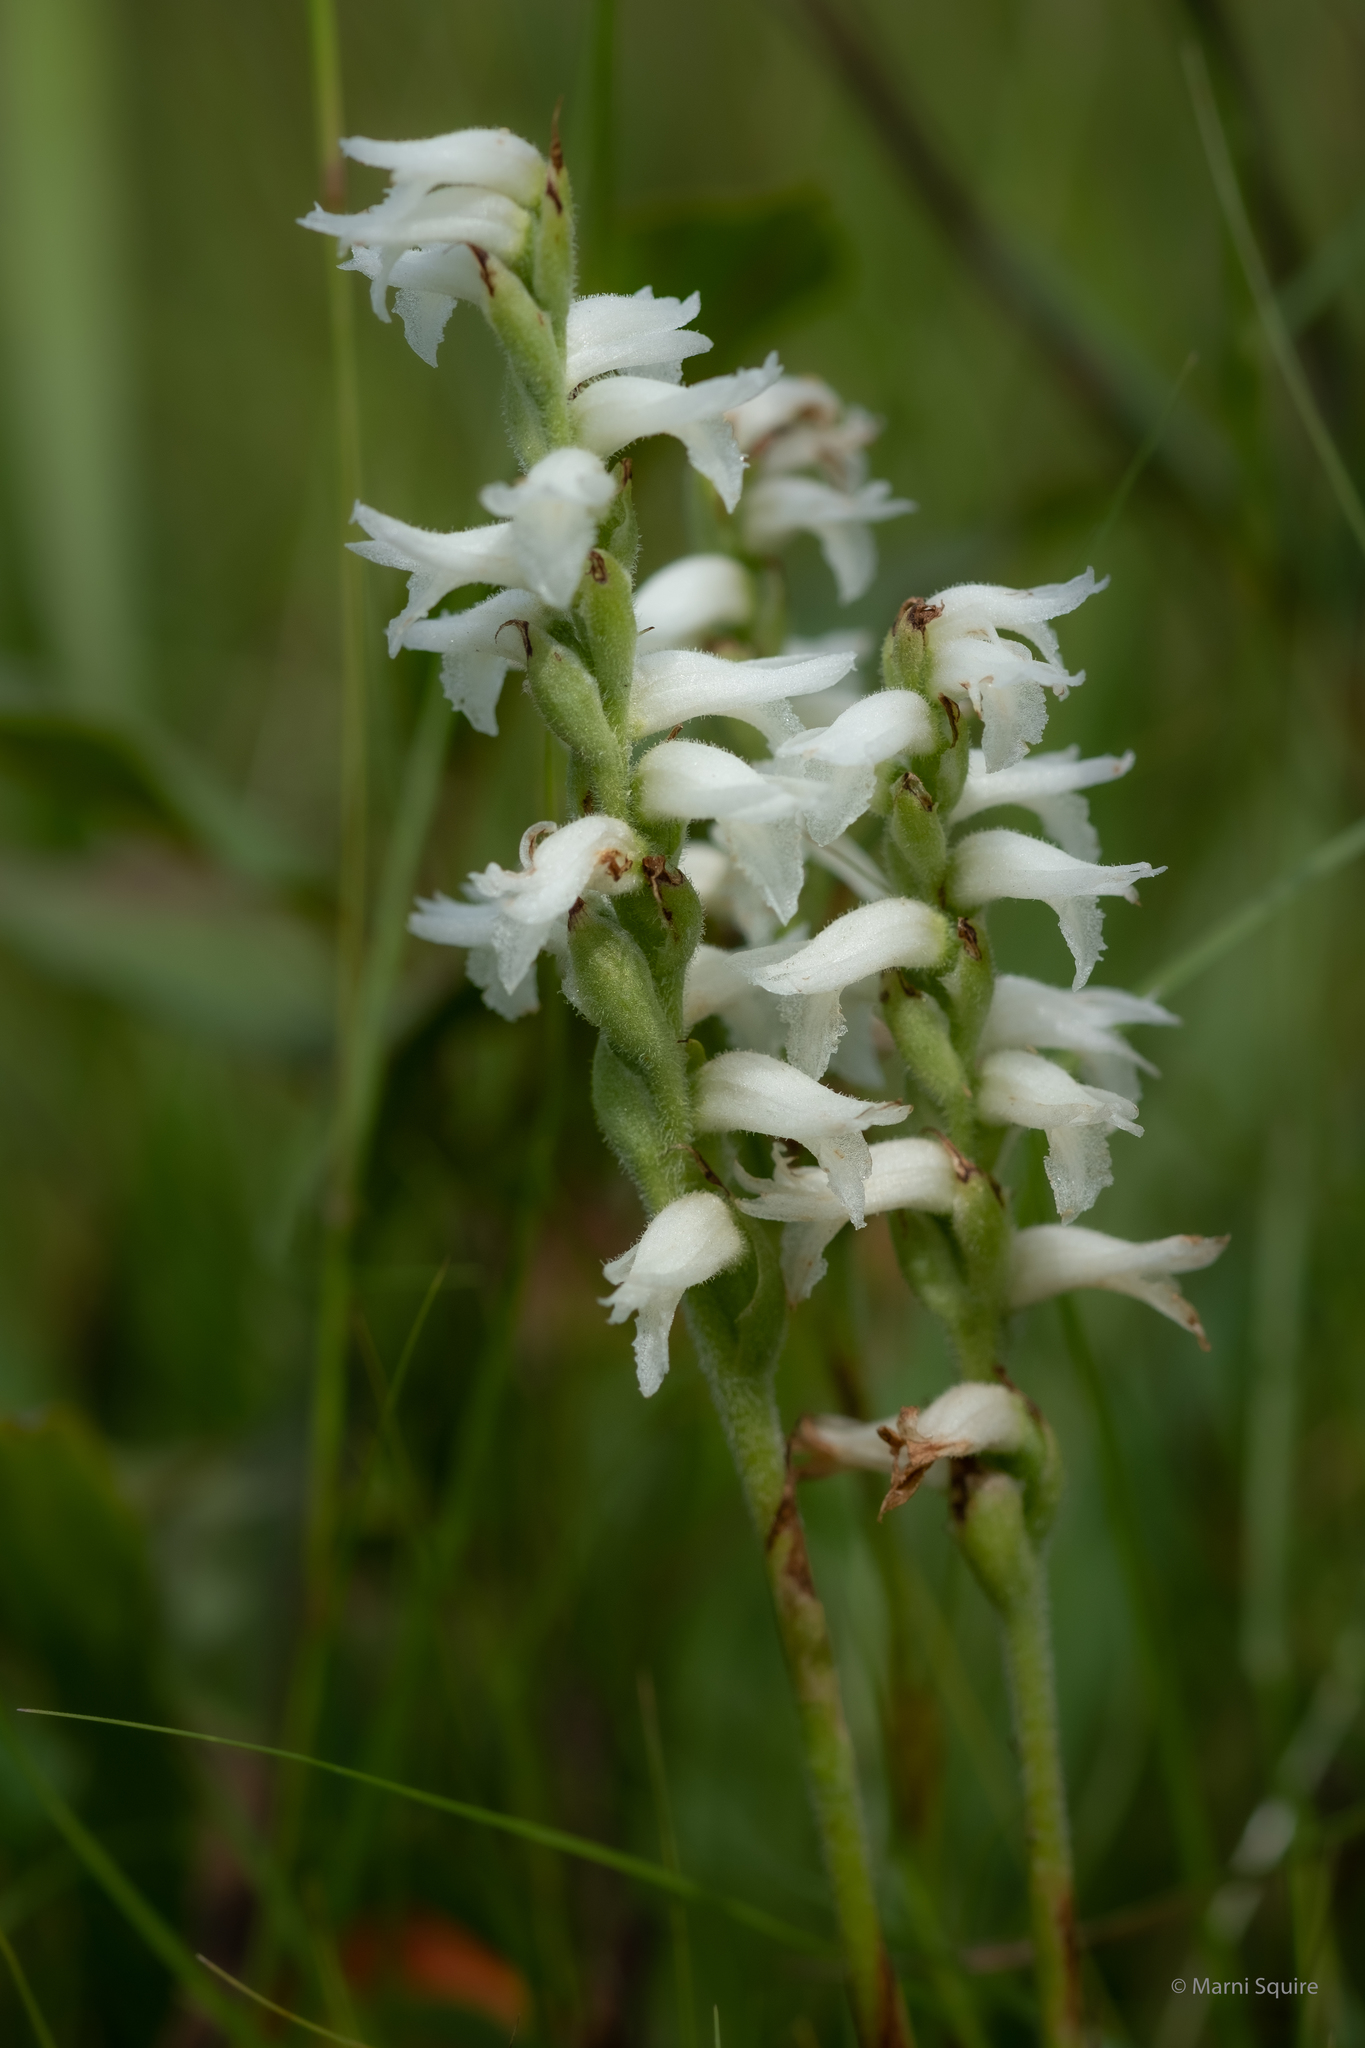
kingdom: Plantae
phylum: Tracheophyta
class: Liliopsida
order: Asparagales
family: Orchidaceae
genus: Spiranthes
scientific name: Spiranthes incurva
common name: Sphinx ladies'-tresses
